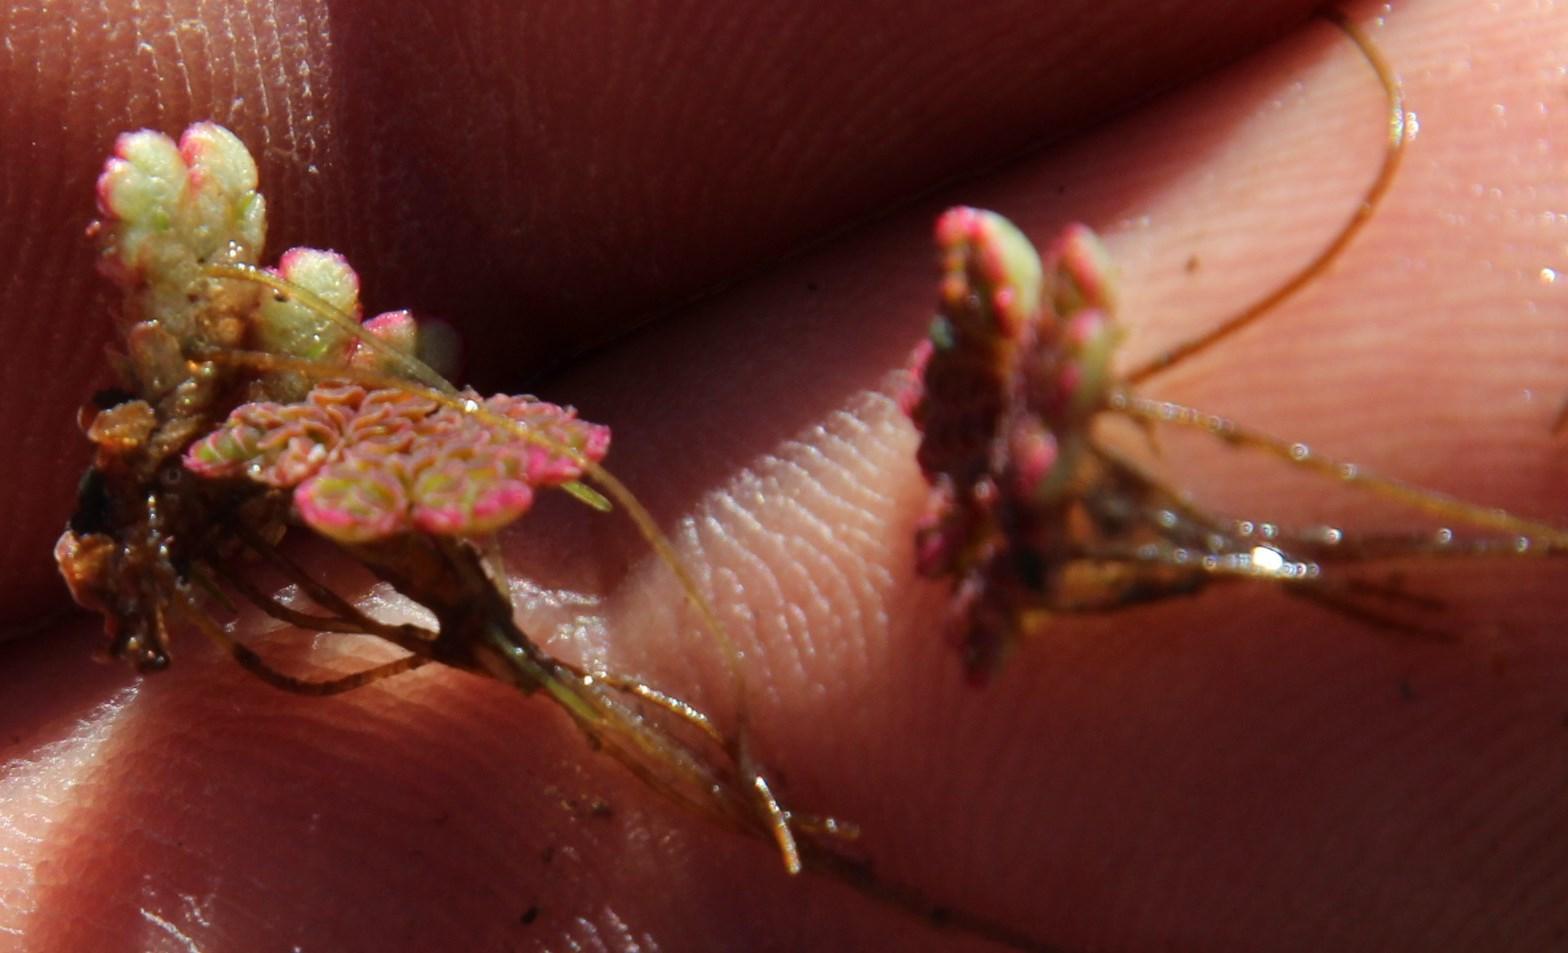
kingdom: Plantae
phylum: Tracheophyta
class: Polypodiopsida
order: Salviniales
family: Salviniaceae
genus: Azolla
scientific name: Azolla filiculoides
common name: Water fern
